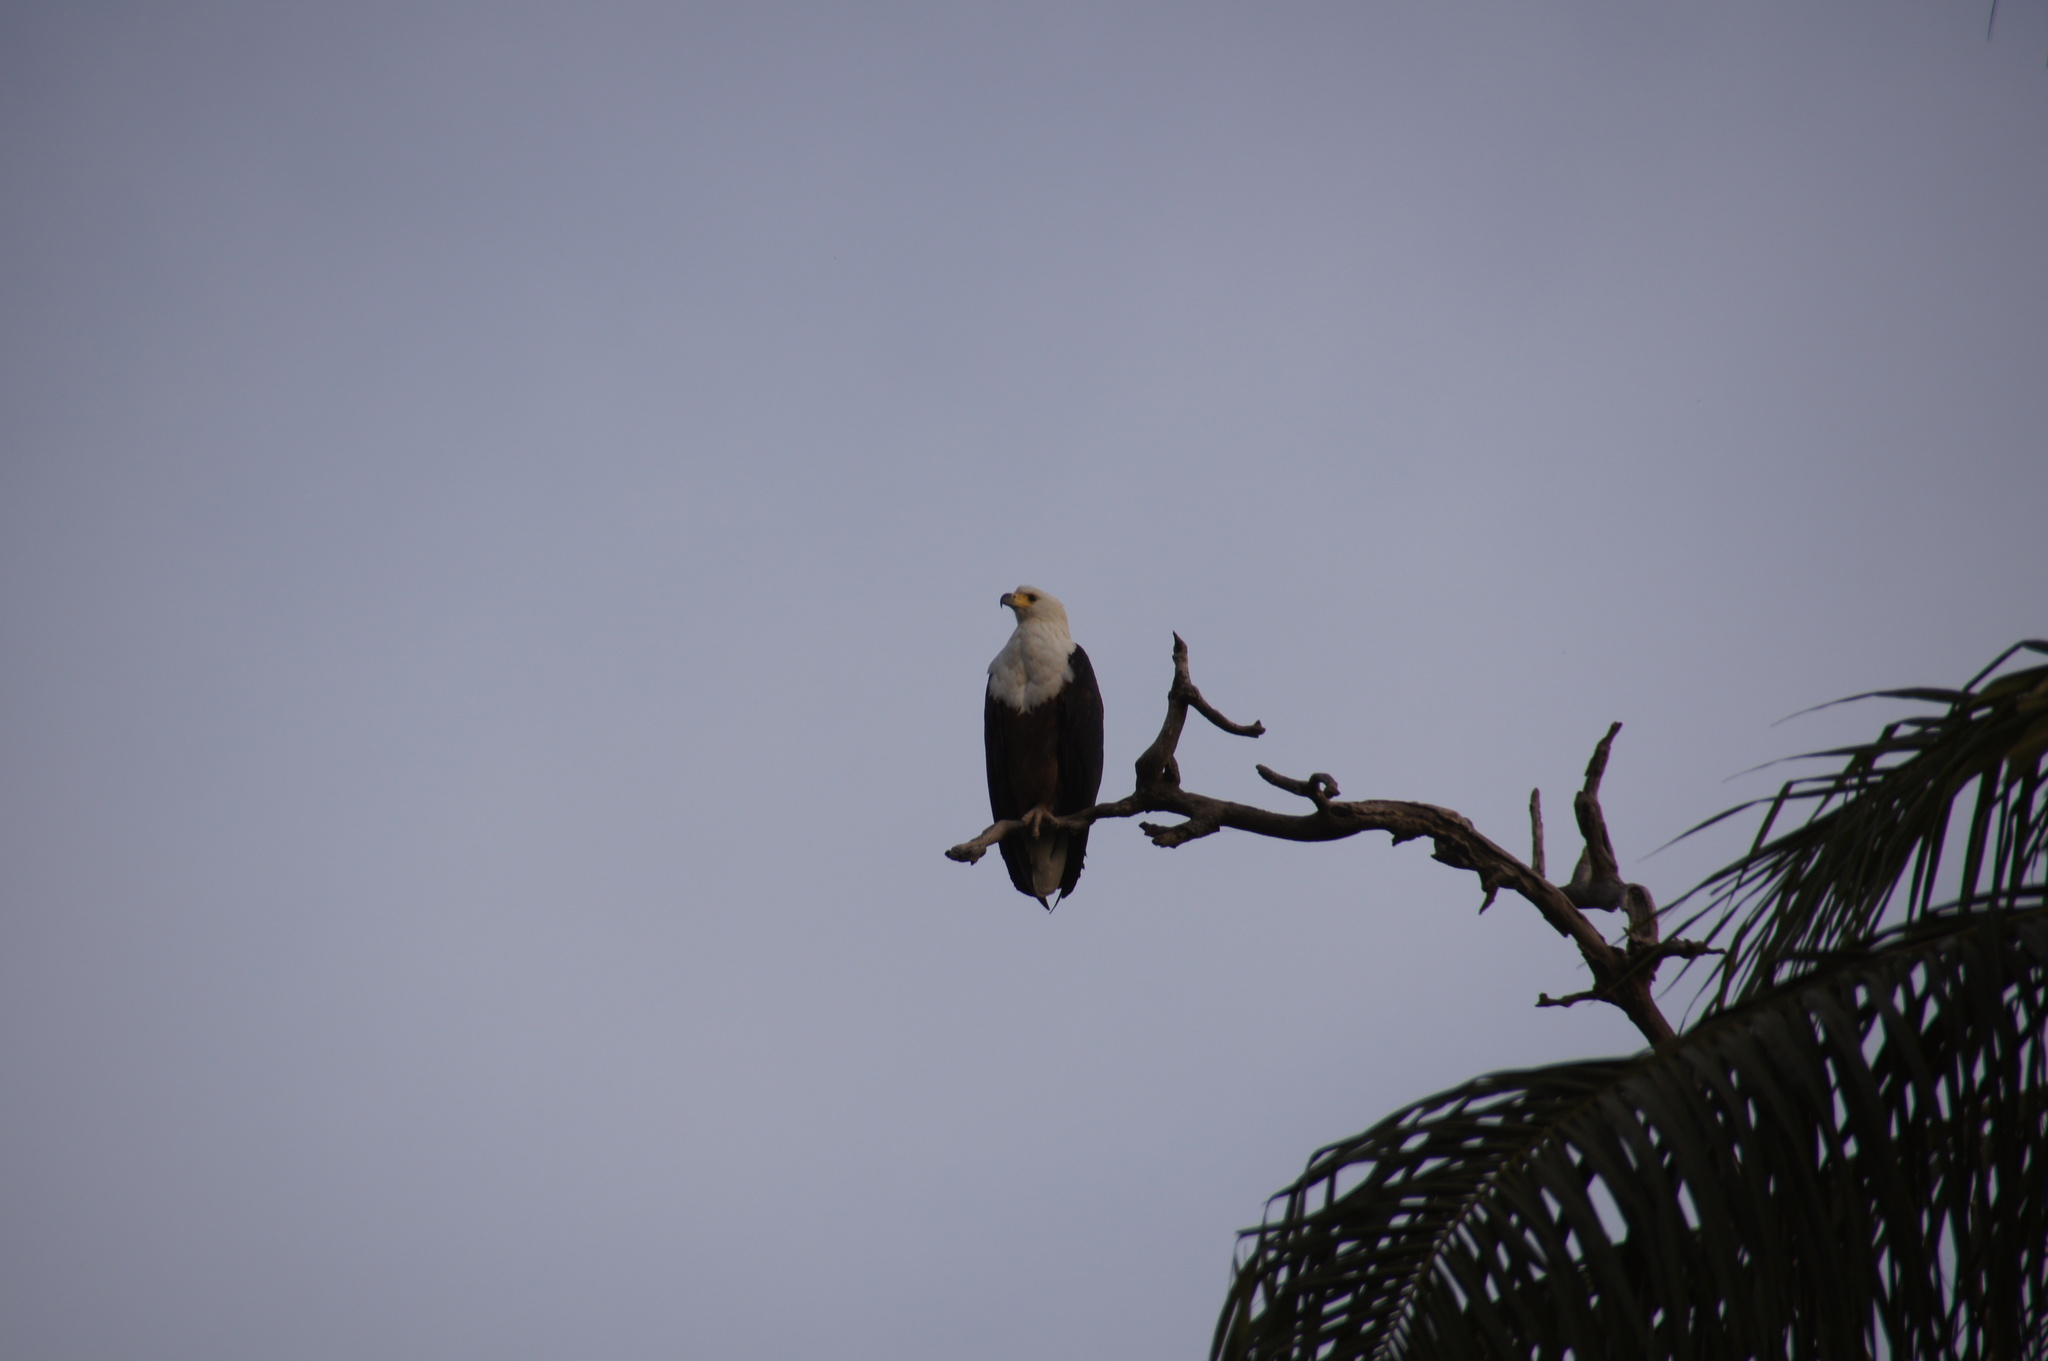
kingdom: Animalia
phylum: Chordata
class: Aves
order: Accipitriformes
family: Accipitridae
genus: Haliaeetus
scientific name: Haliaeetus vocifer
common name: African fish eagle
